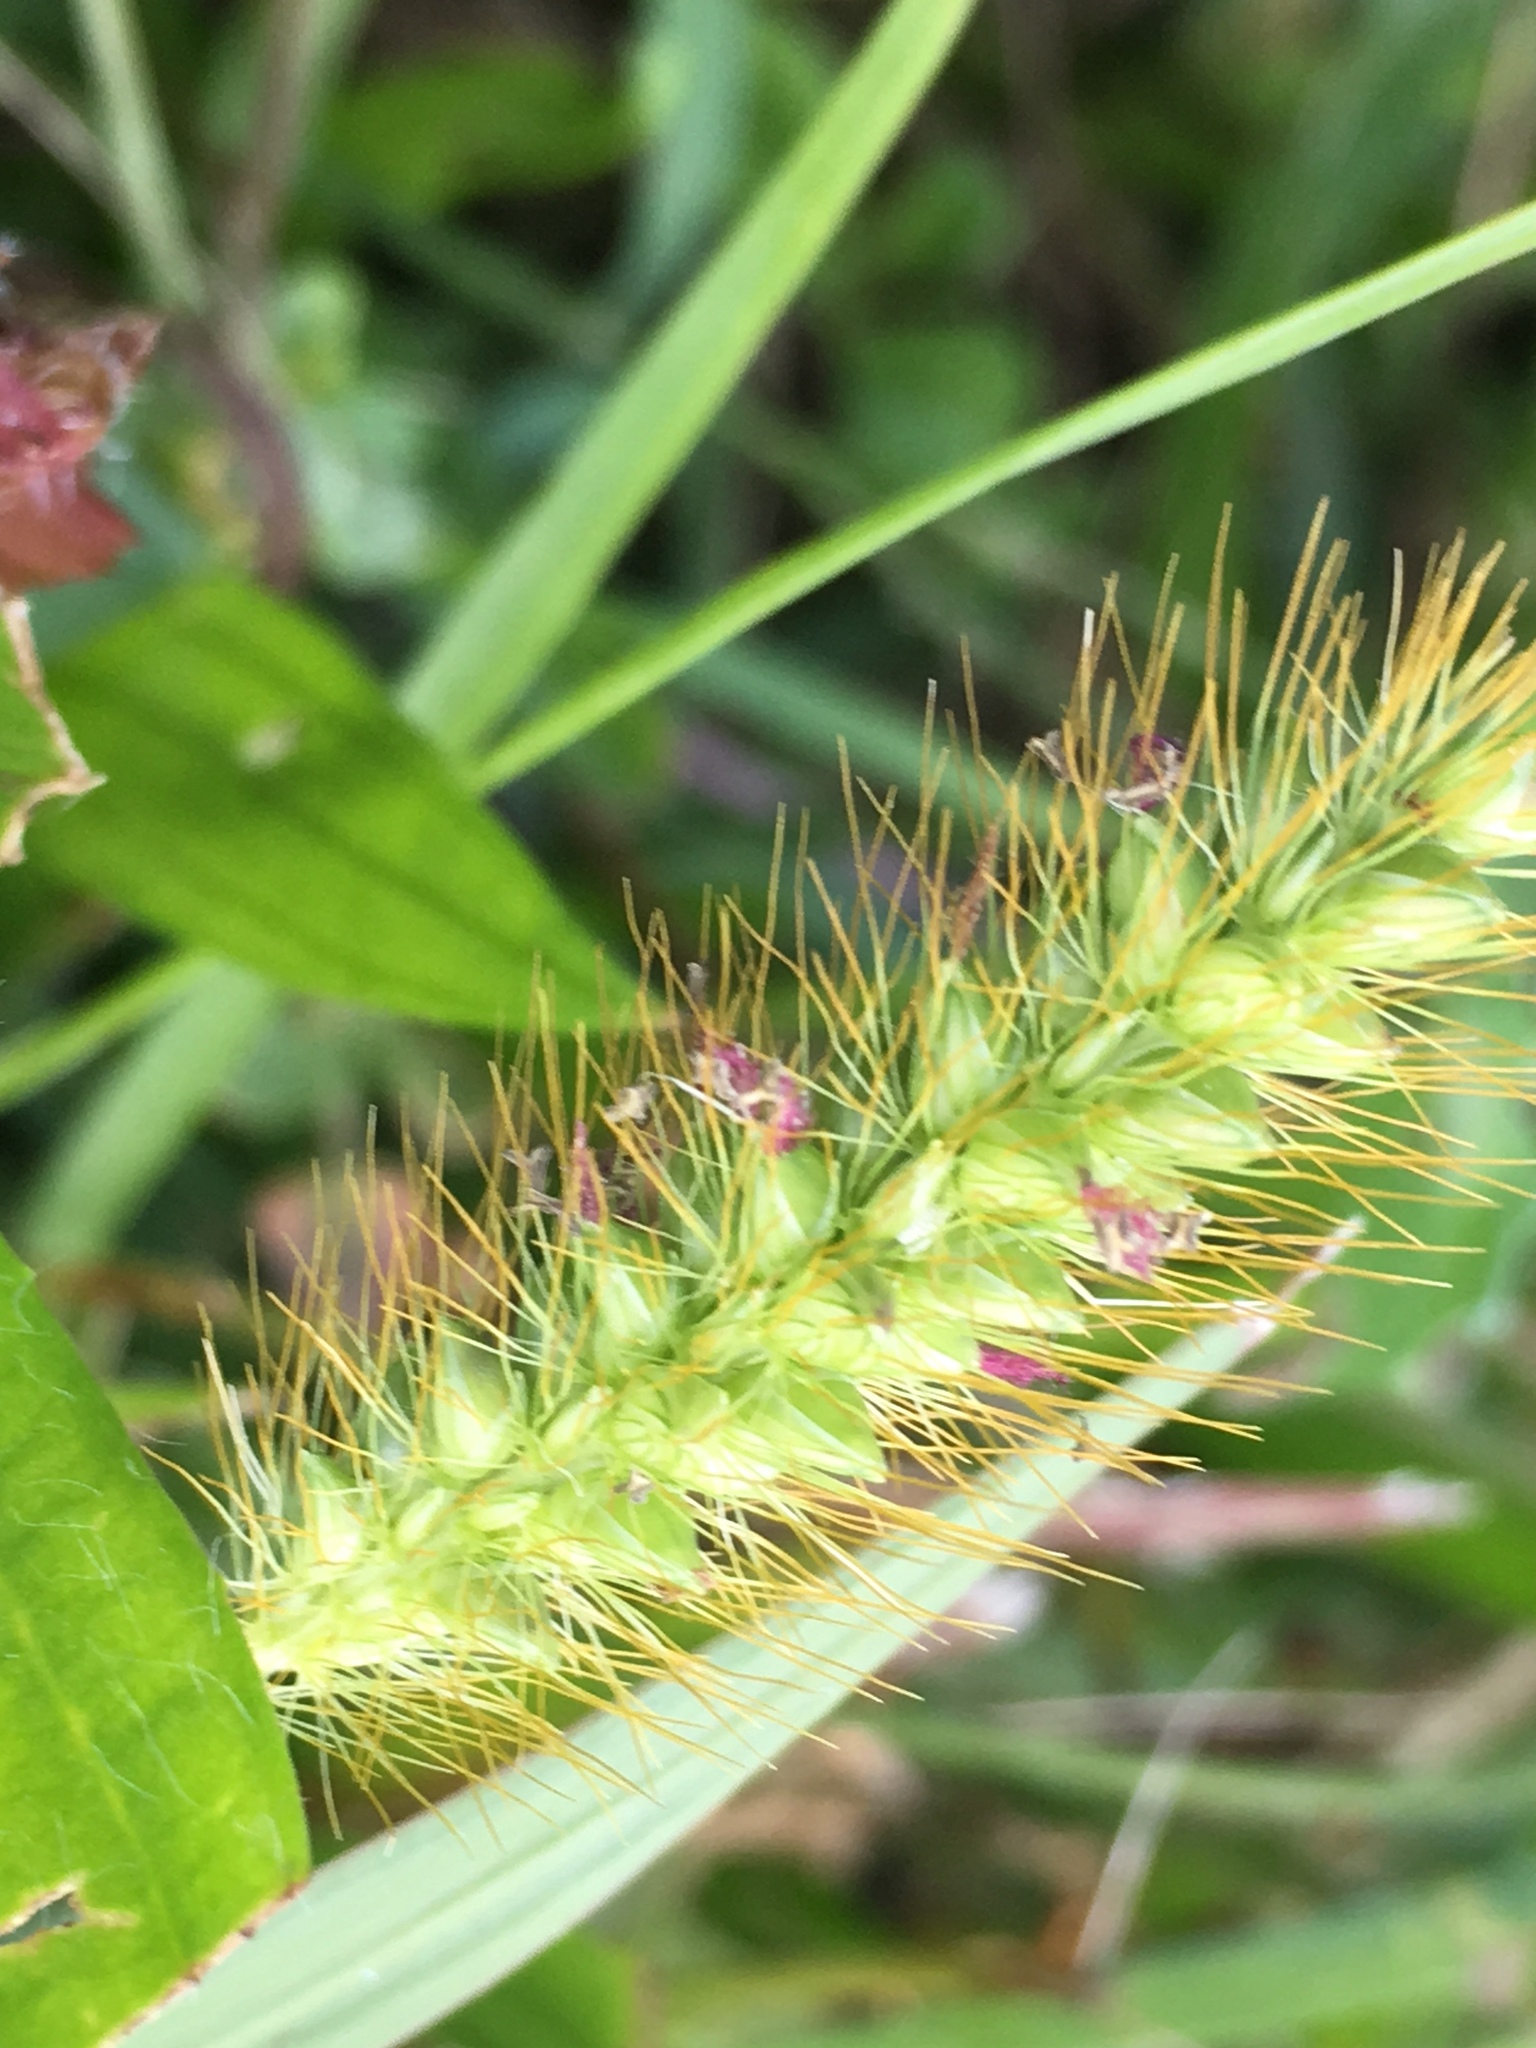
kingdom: Plantae
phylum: Tracheophyta
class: Liliopsida
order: Poales
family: Poaceae
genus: Setaria
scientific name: Setaria pumila
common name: Yellow bristle-grass
